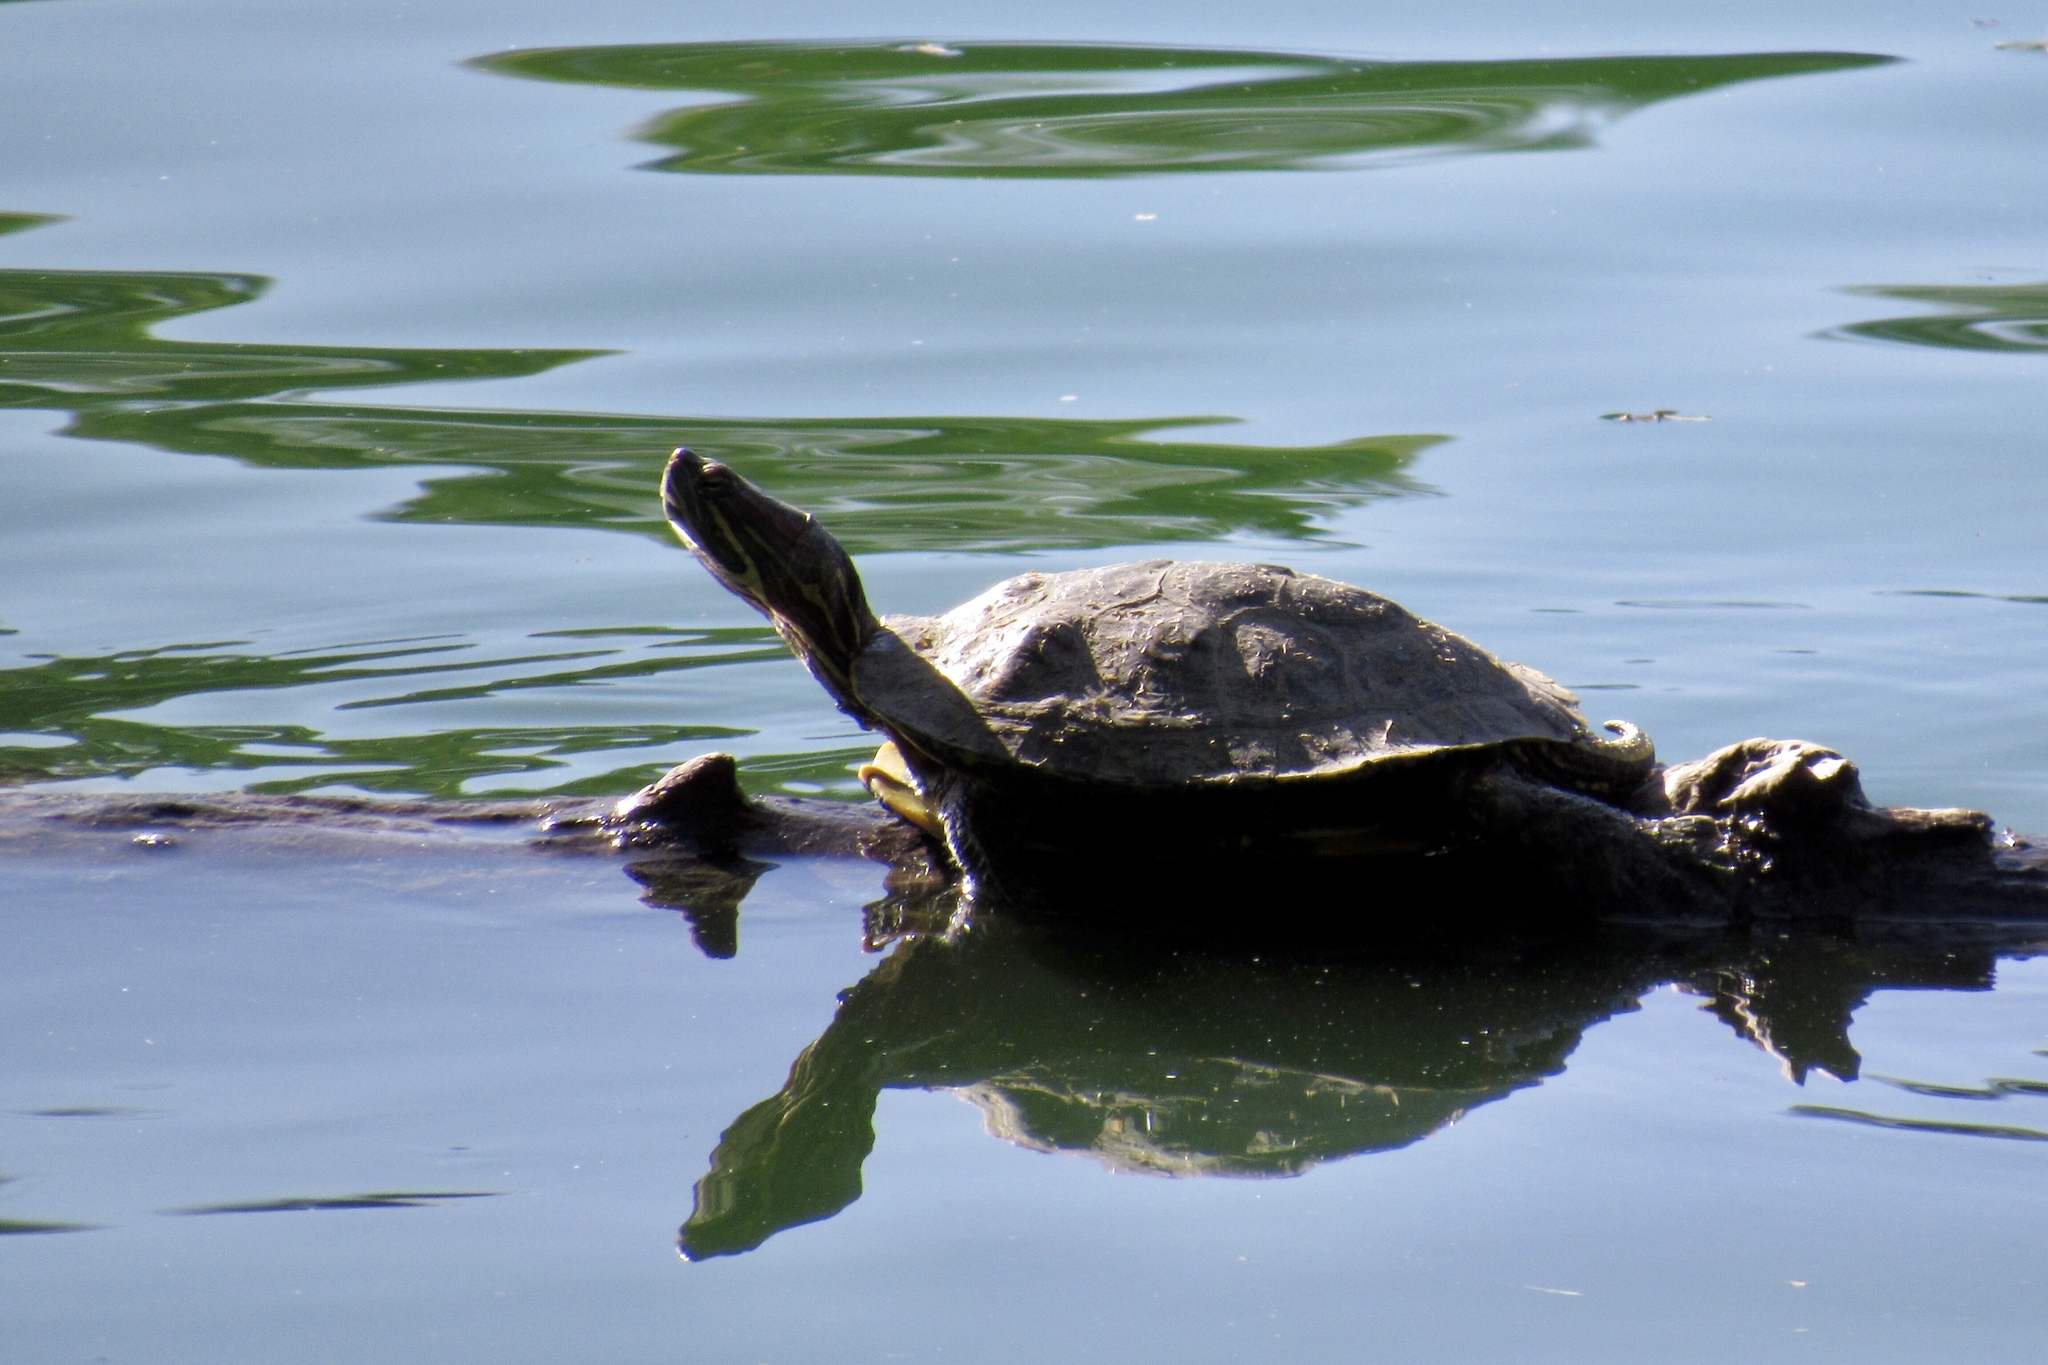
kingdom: Animalia
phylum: Chordata
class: Testudines
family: Emydidae
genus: Trachemys
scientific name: Trachemys scripta
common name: Slider
